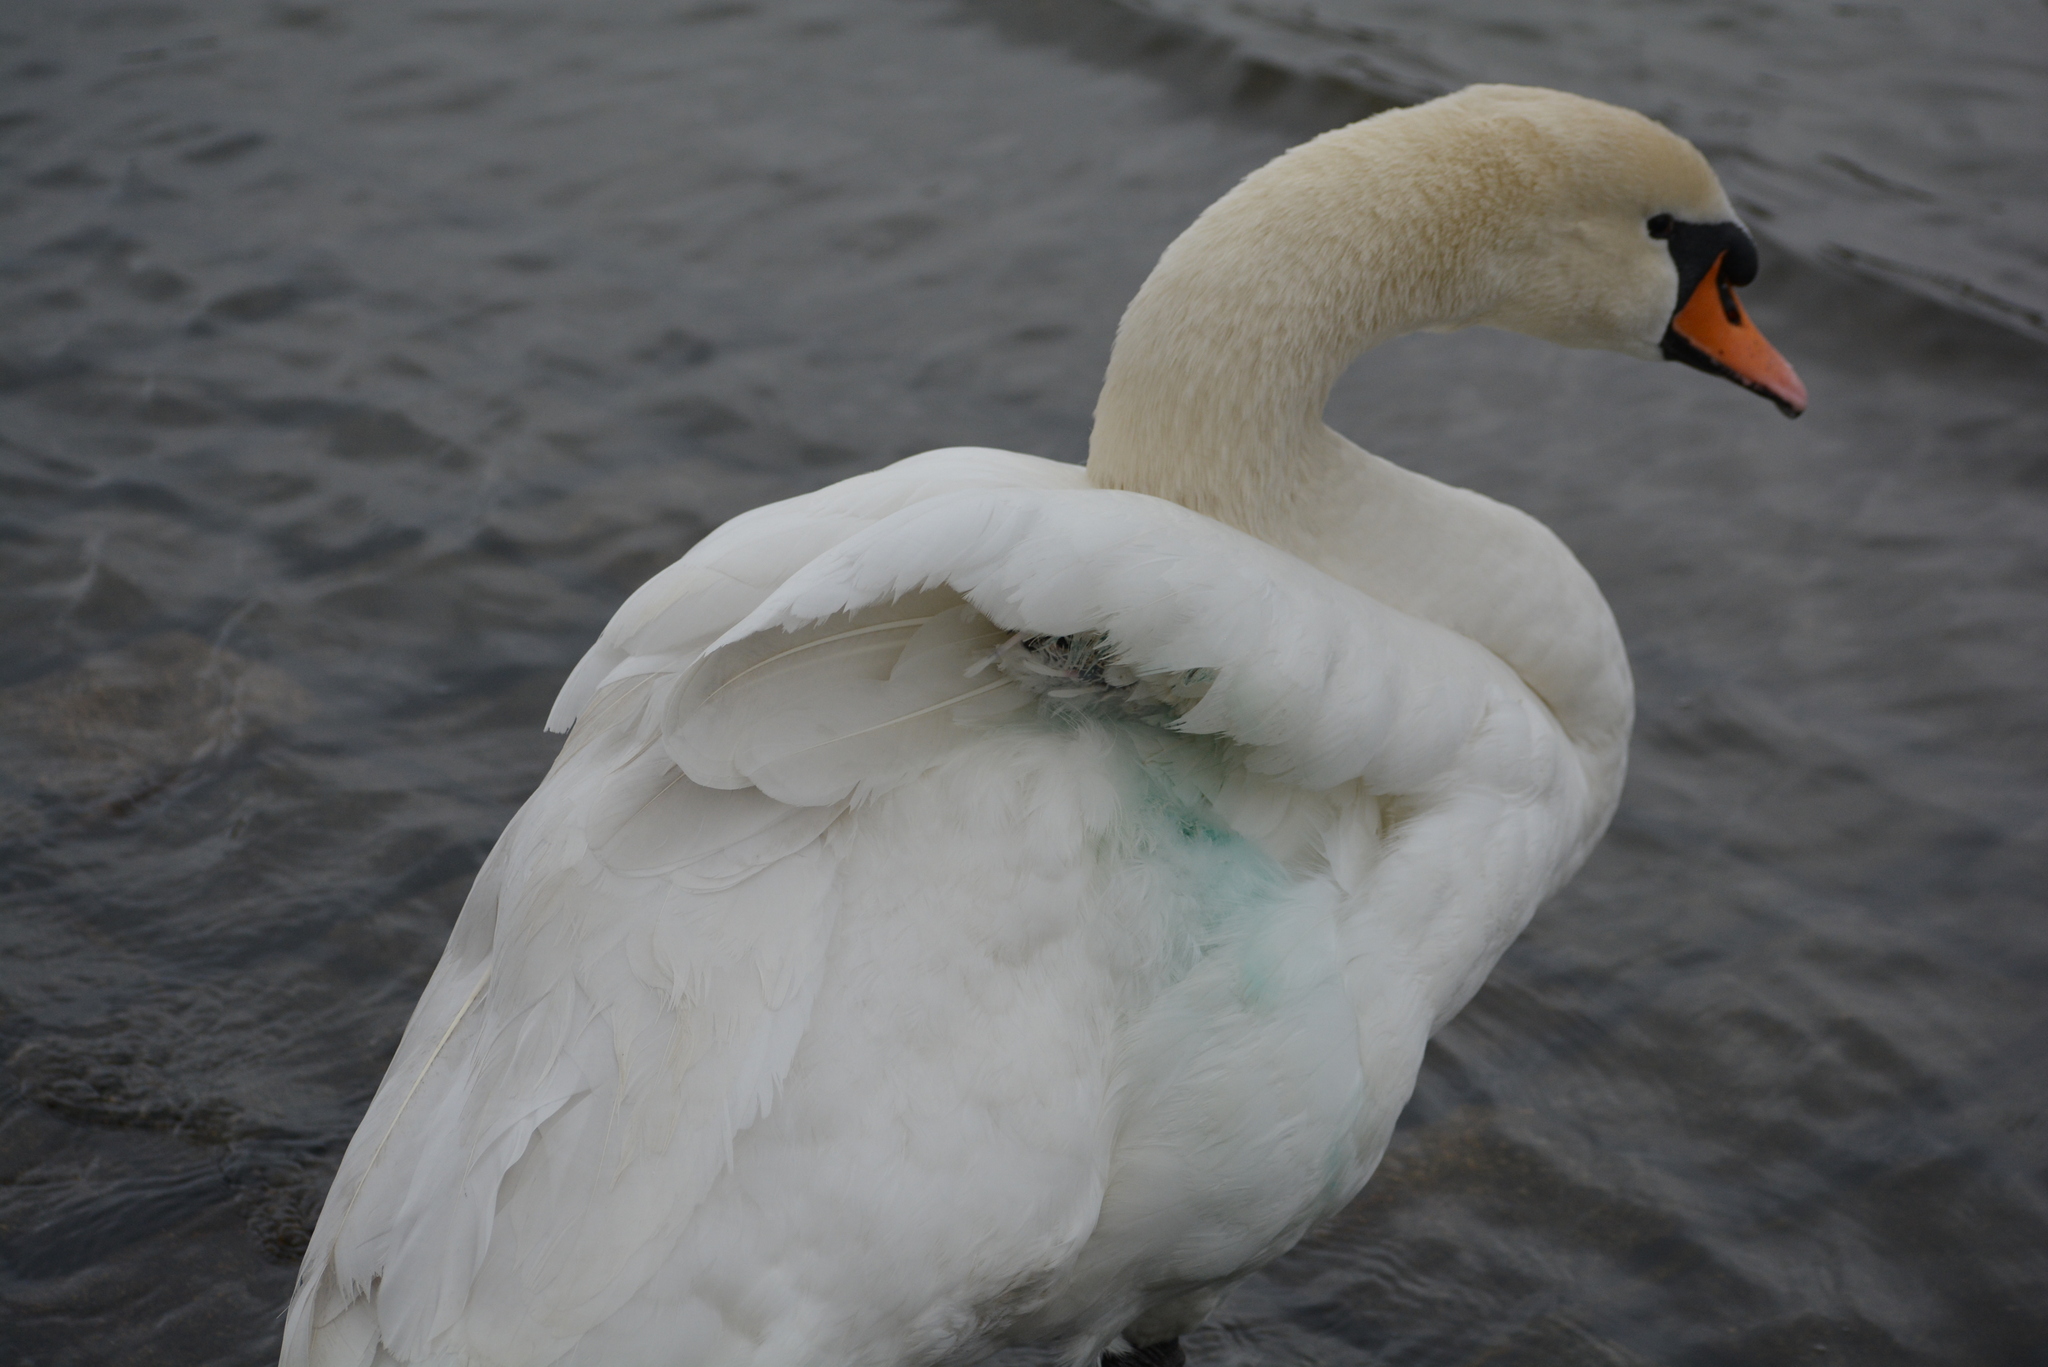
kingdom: Animalia
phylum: Chordata
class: Aves
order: Anseriformes
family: Anatidae
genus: Cygnus
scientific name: Cygnus olor
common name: Mute swan
